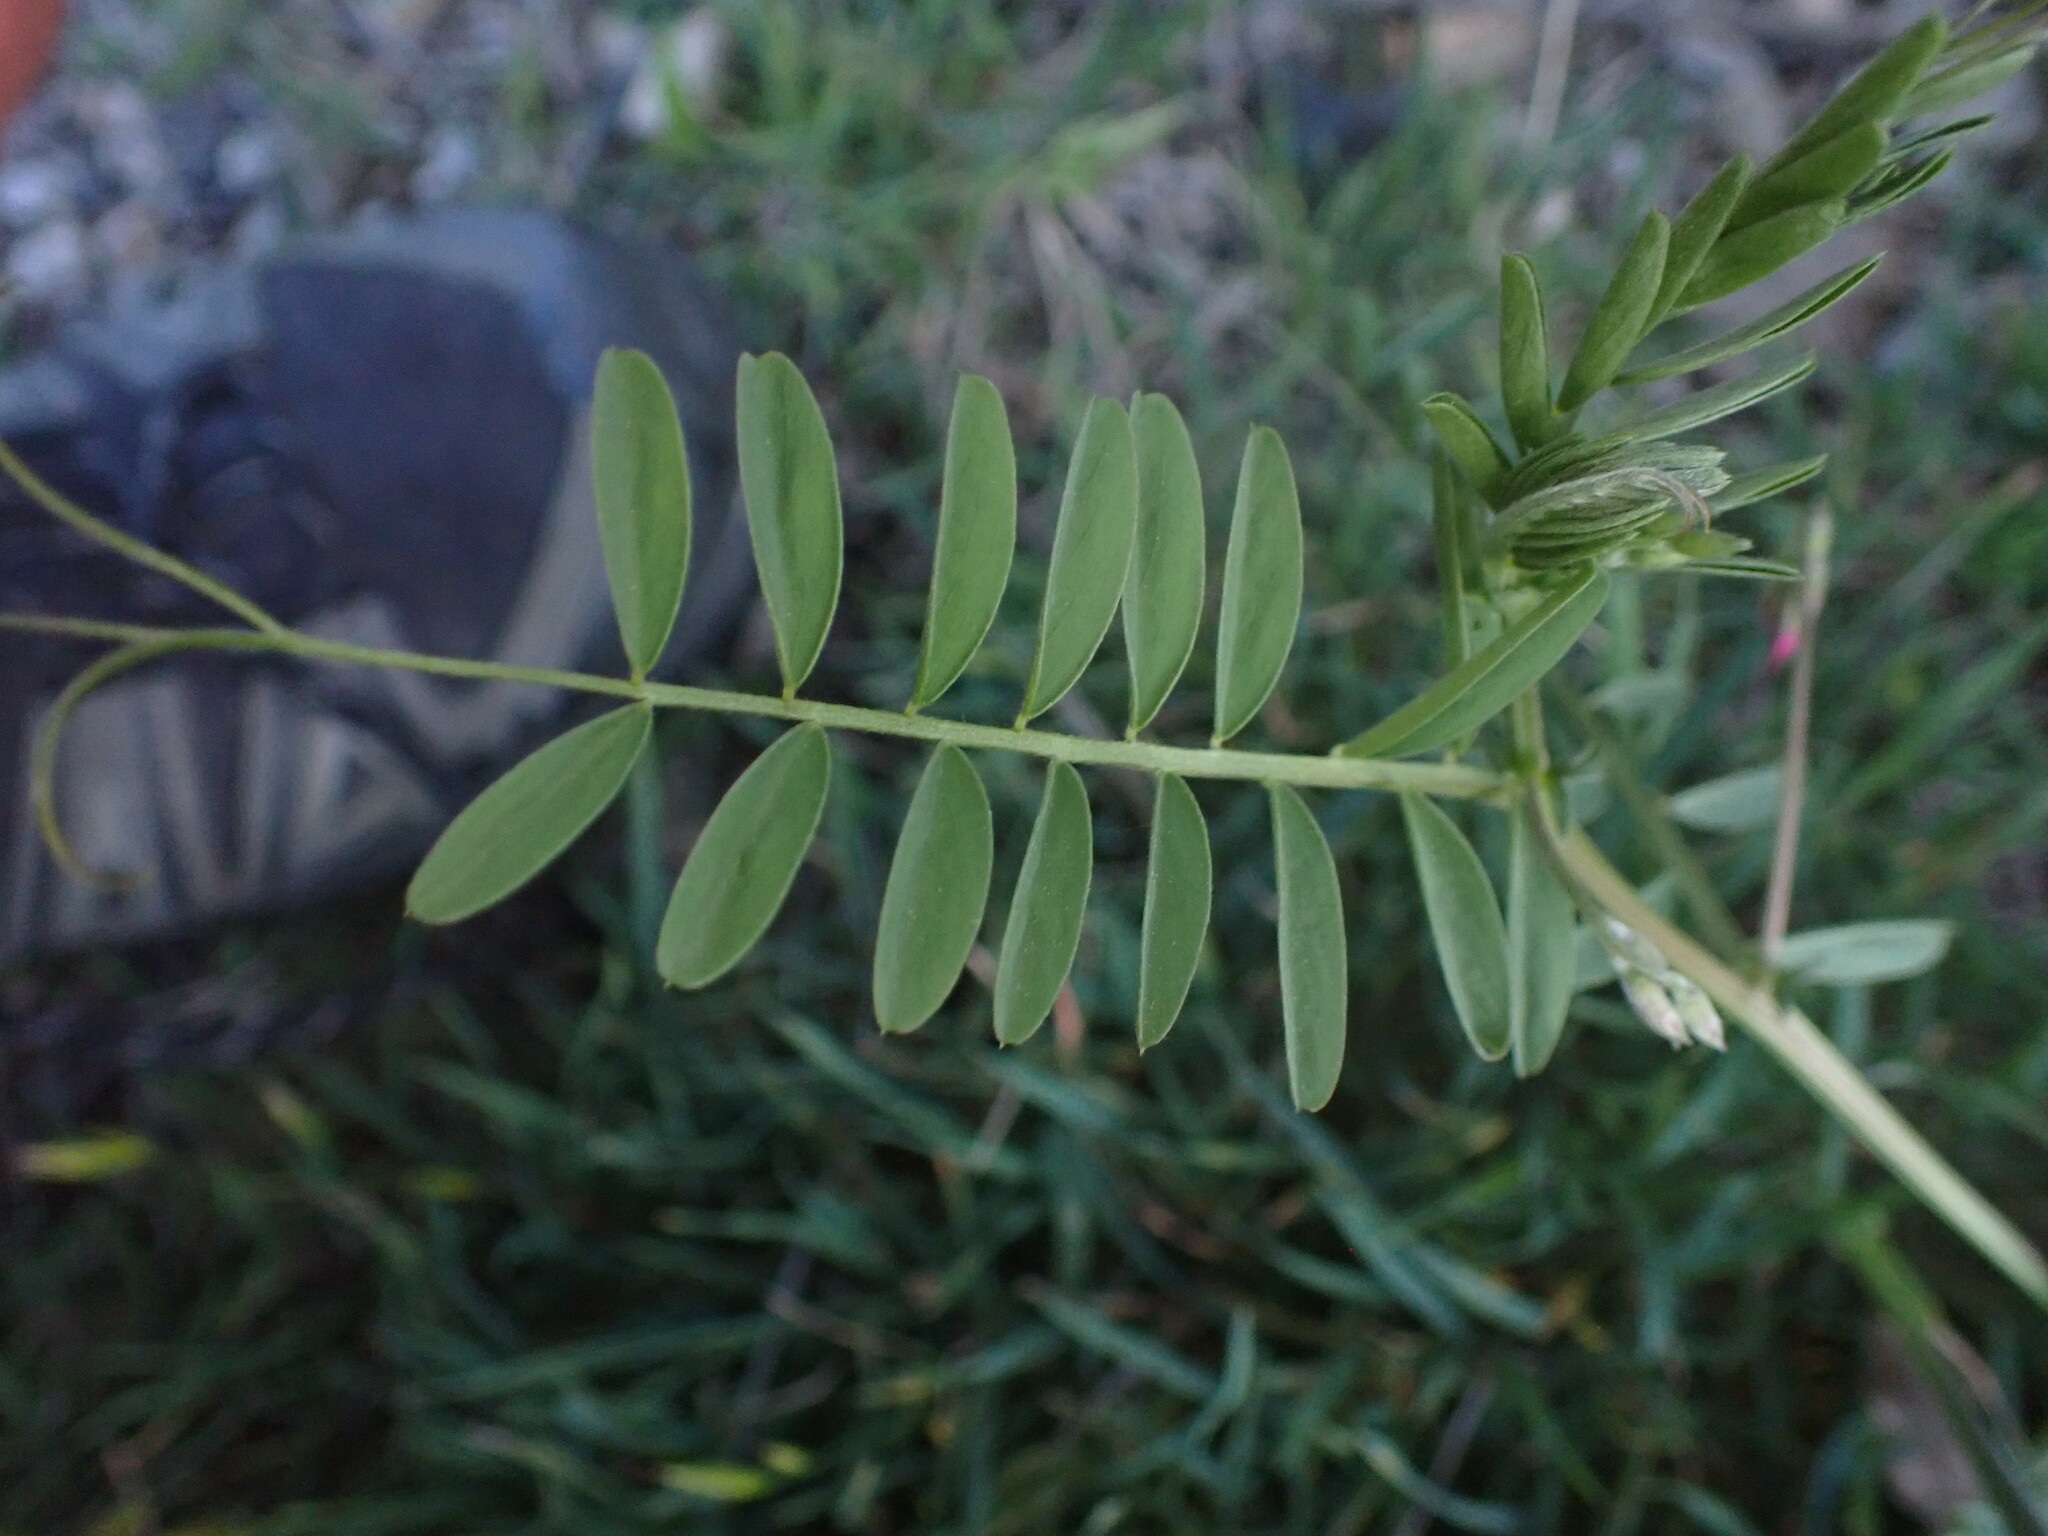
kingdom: Plantae
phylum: Tracheophyta
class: Magnoliopsida
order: Fabales
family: Fabaceae
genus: Vicia
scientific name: Vicia monantha
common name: Barn vetch
